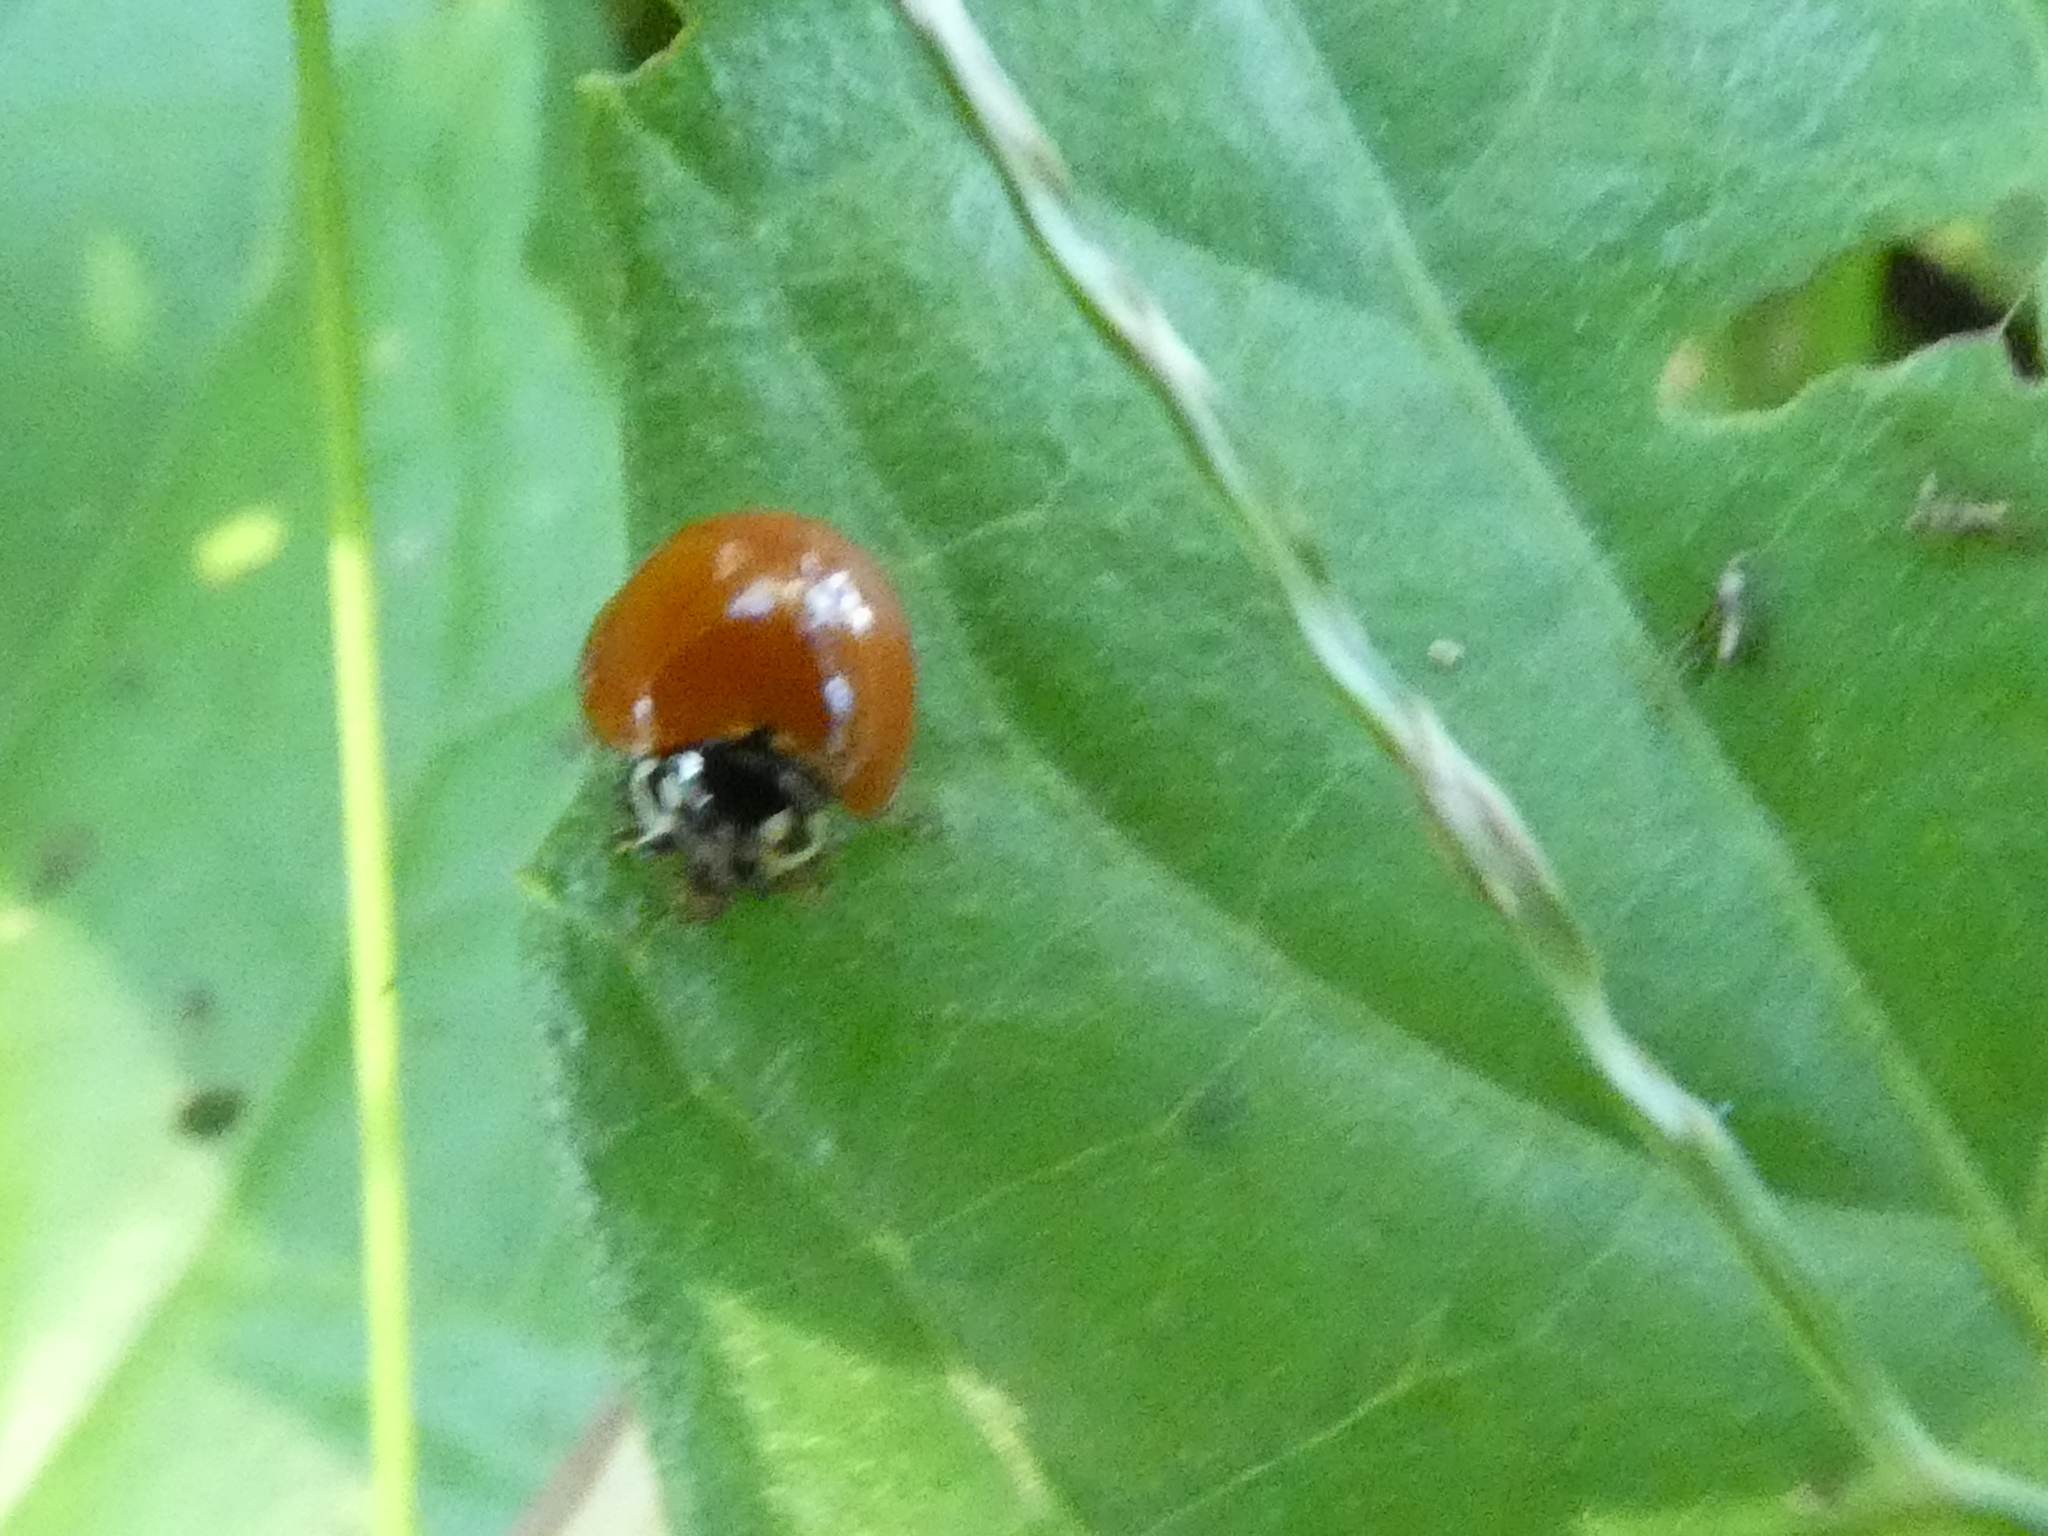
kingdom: Animalia
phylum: Arthropoda
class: Insecta
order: Coleoptera
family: Coccinellidae
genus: Cycloneda
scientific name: Cycloneda sanguinea
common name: Ladybird beetle
